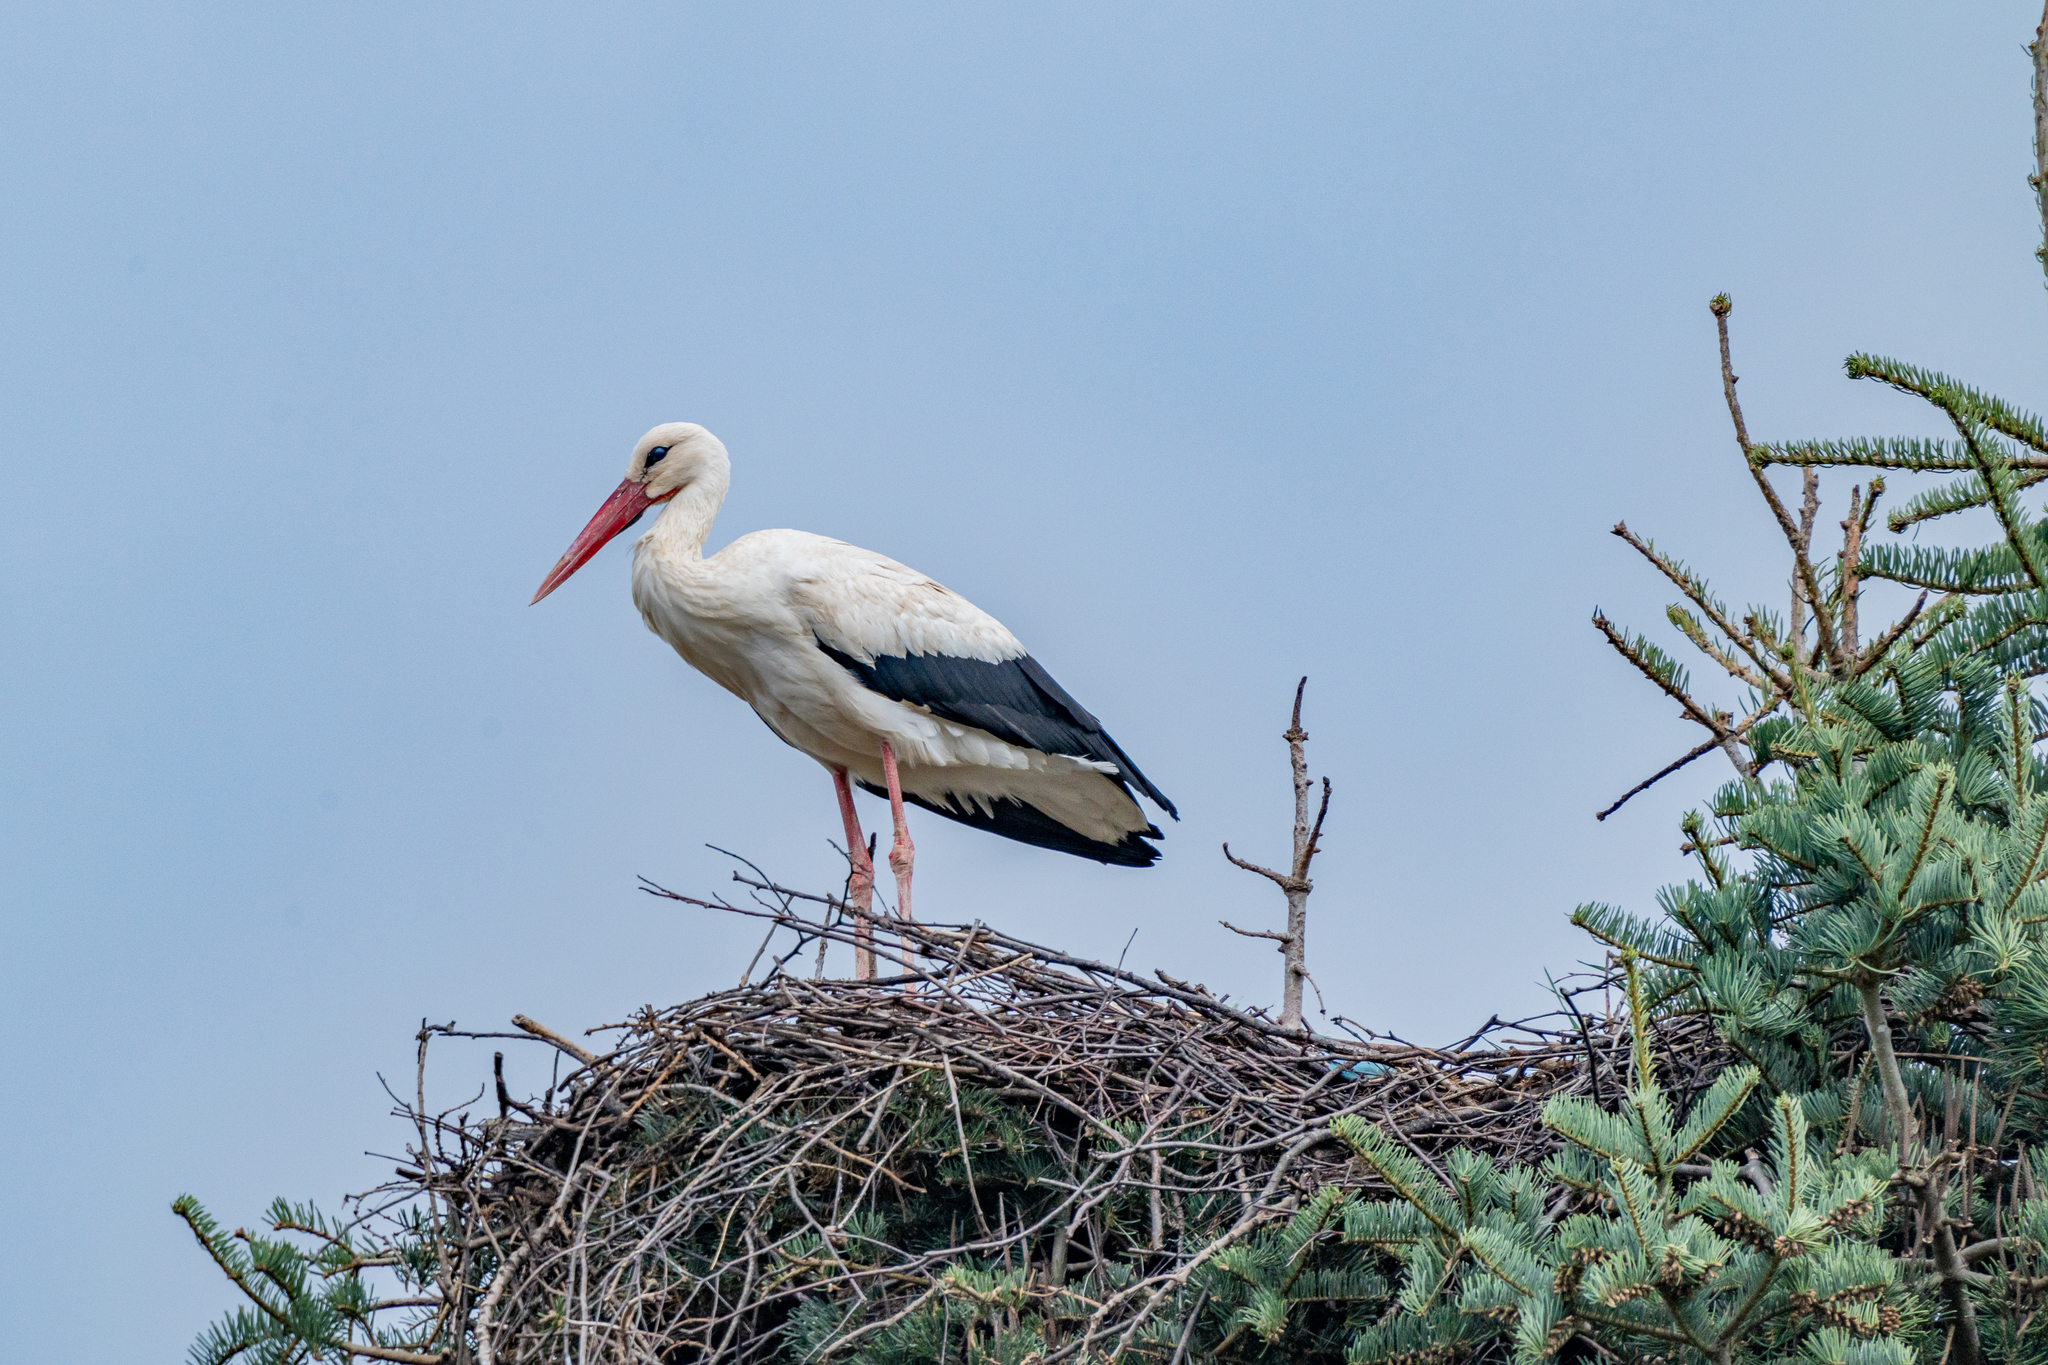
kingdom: Animalia
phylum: Chordata
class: Aves
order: Ciconiiformes
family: Ciconiidae
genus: Ciconia
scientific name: Ciconia ciconia
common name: White stork
